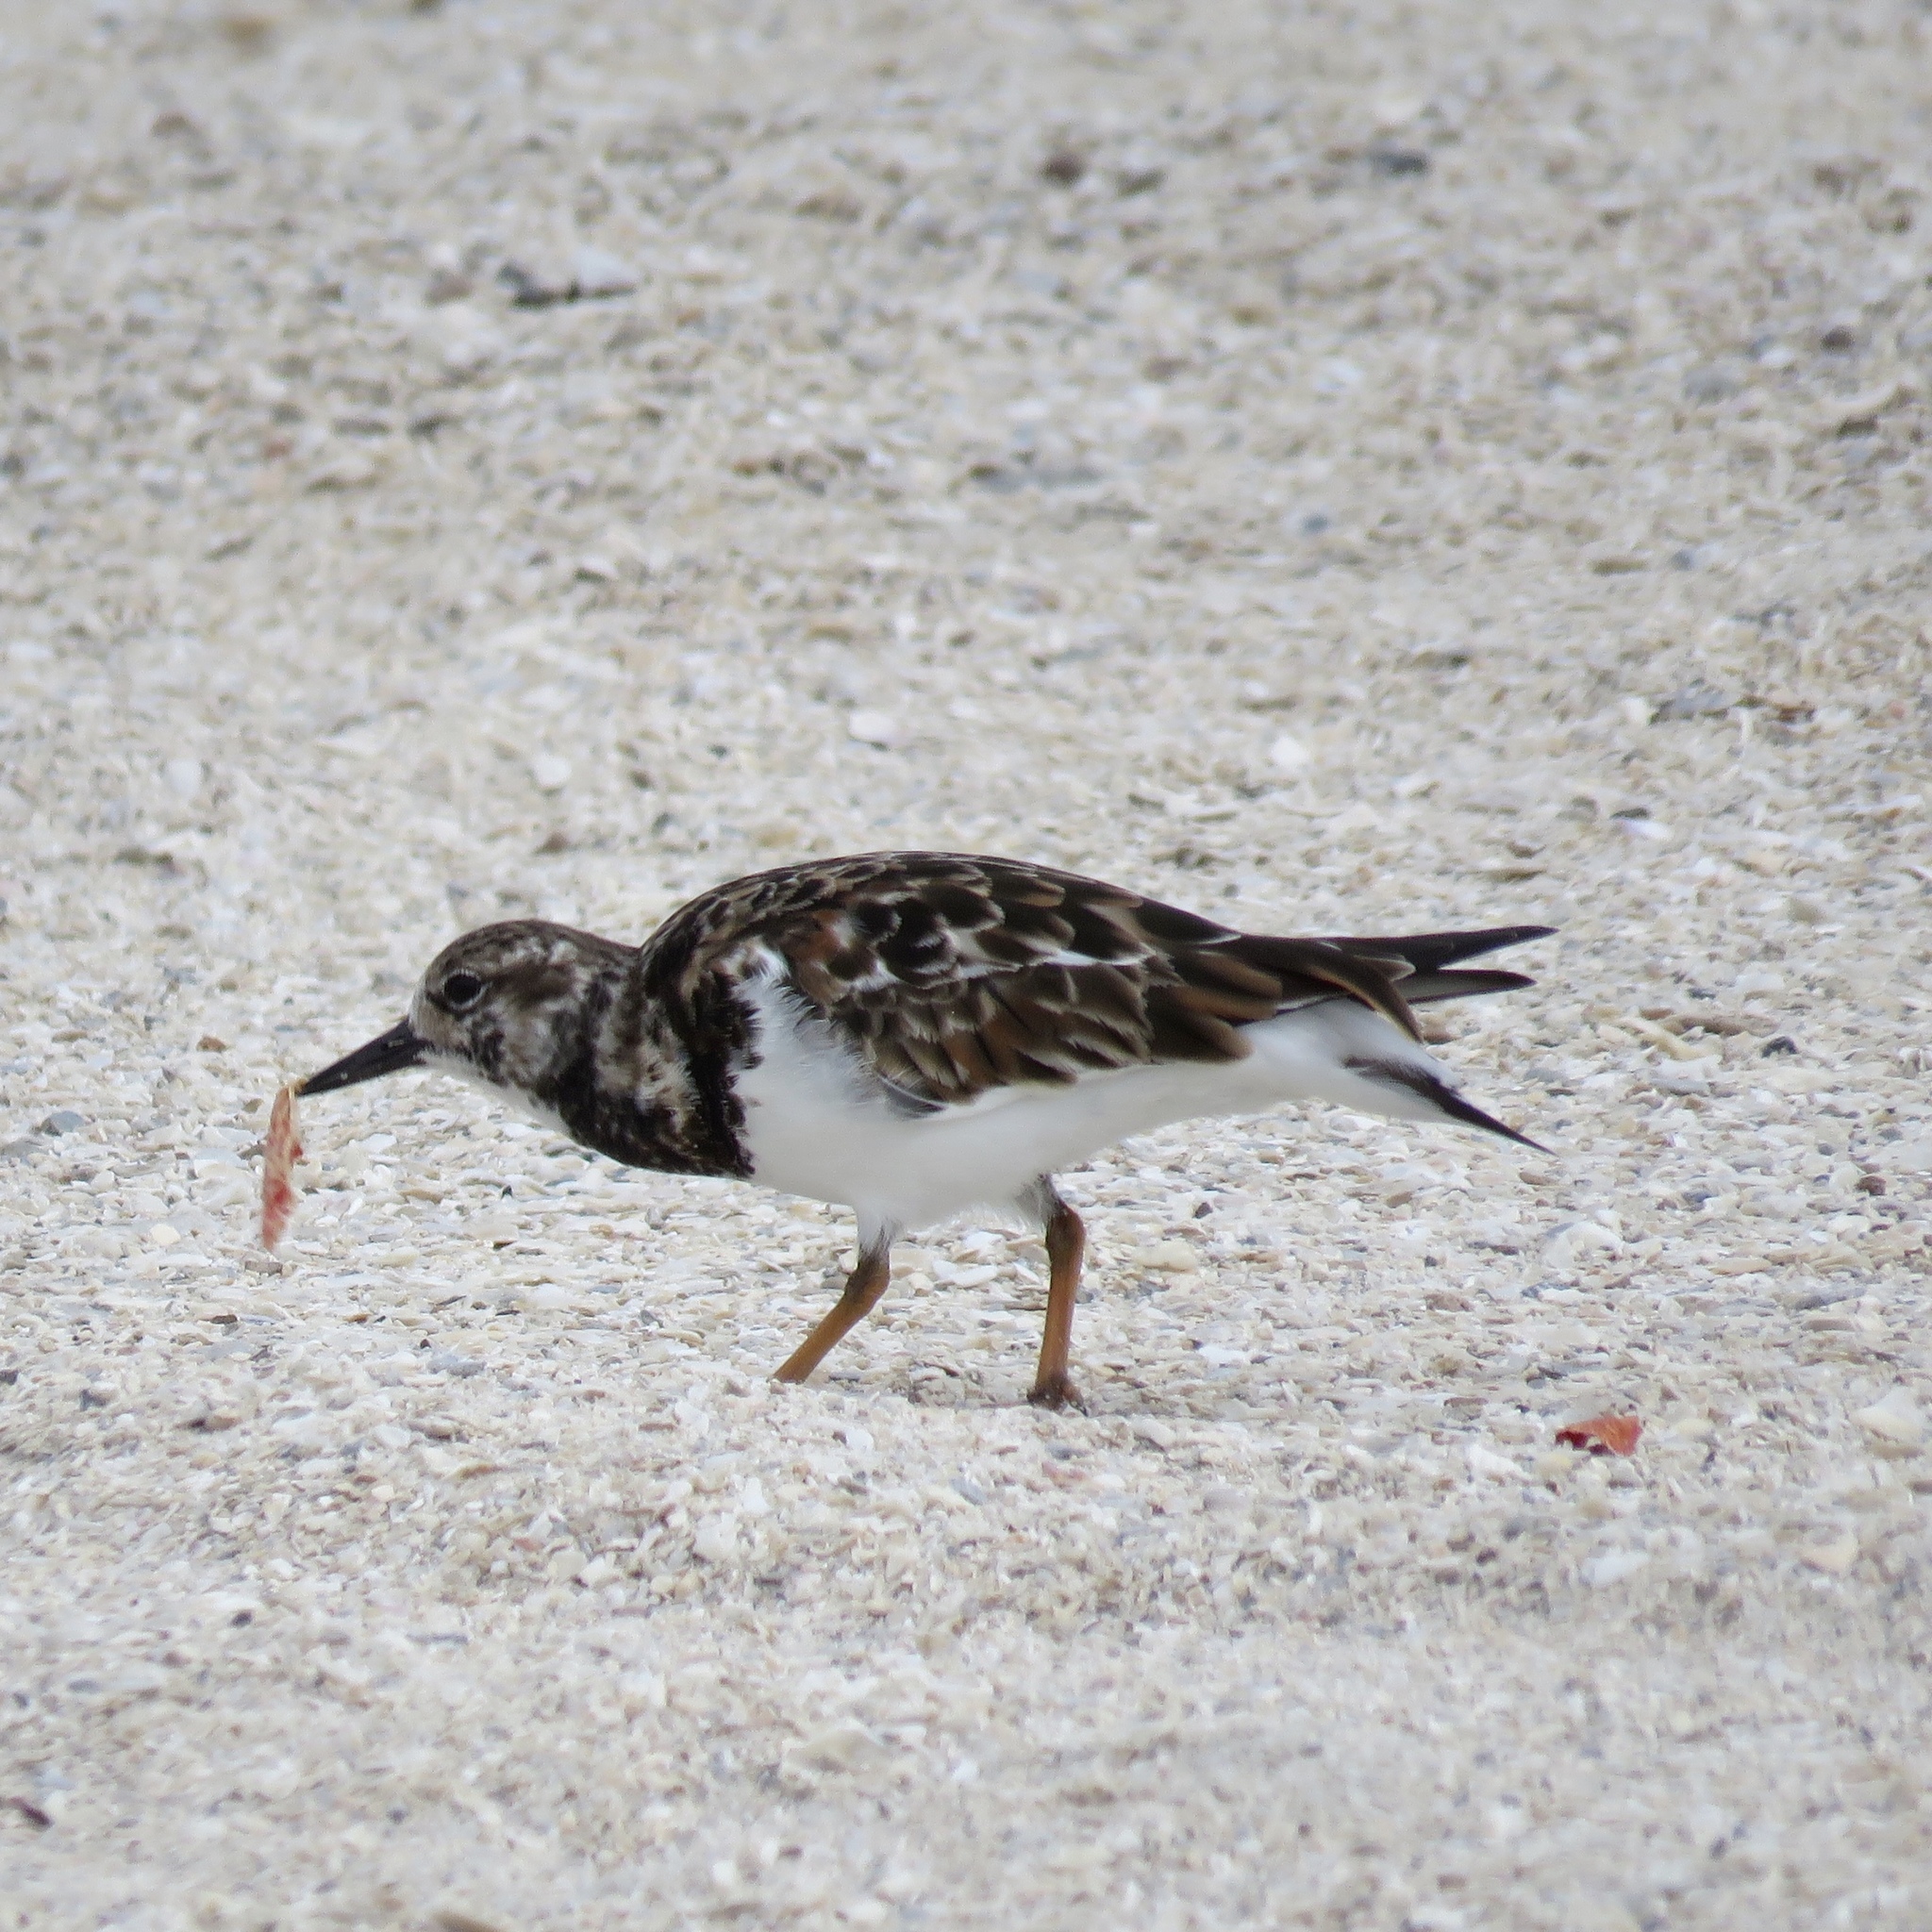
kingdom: Animalia
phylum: Chordata
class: Aves
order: Charadriiformes
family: Scolopacidae
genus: Arenaria
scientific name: Arenaria interpres
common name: Ruddy turnstone
